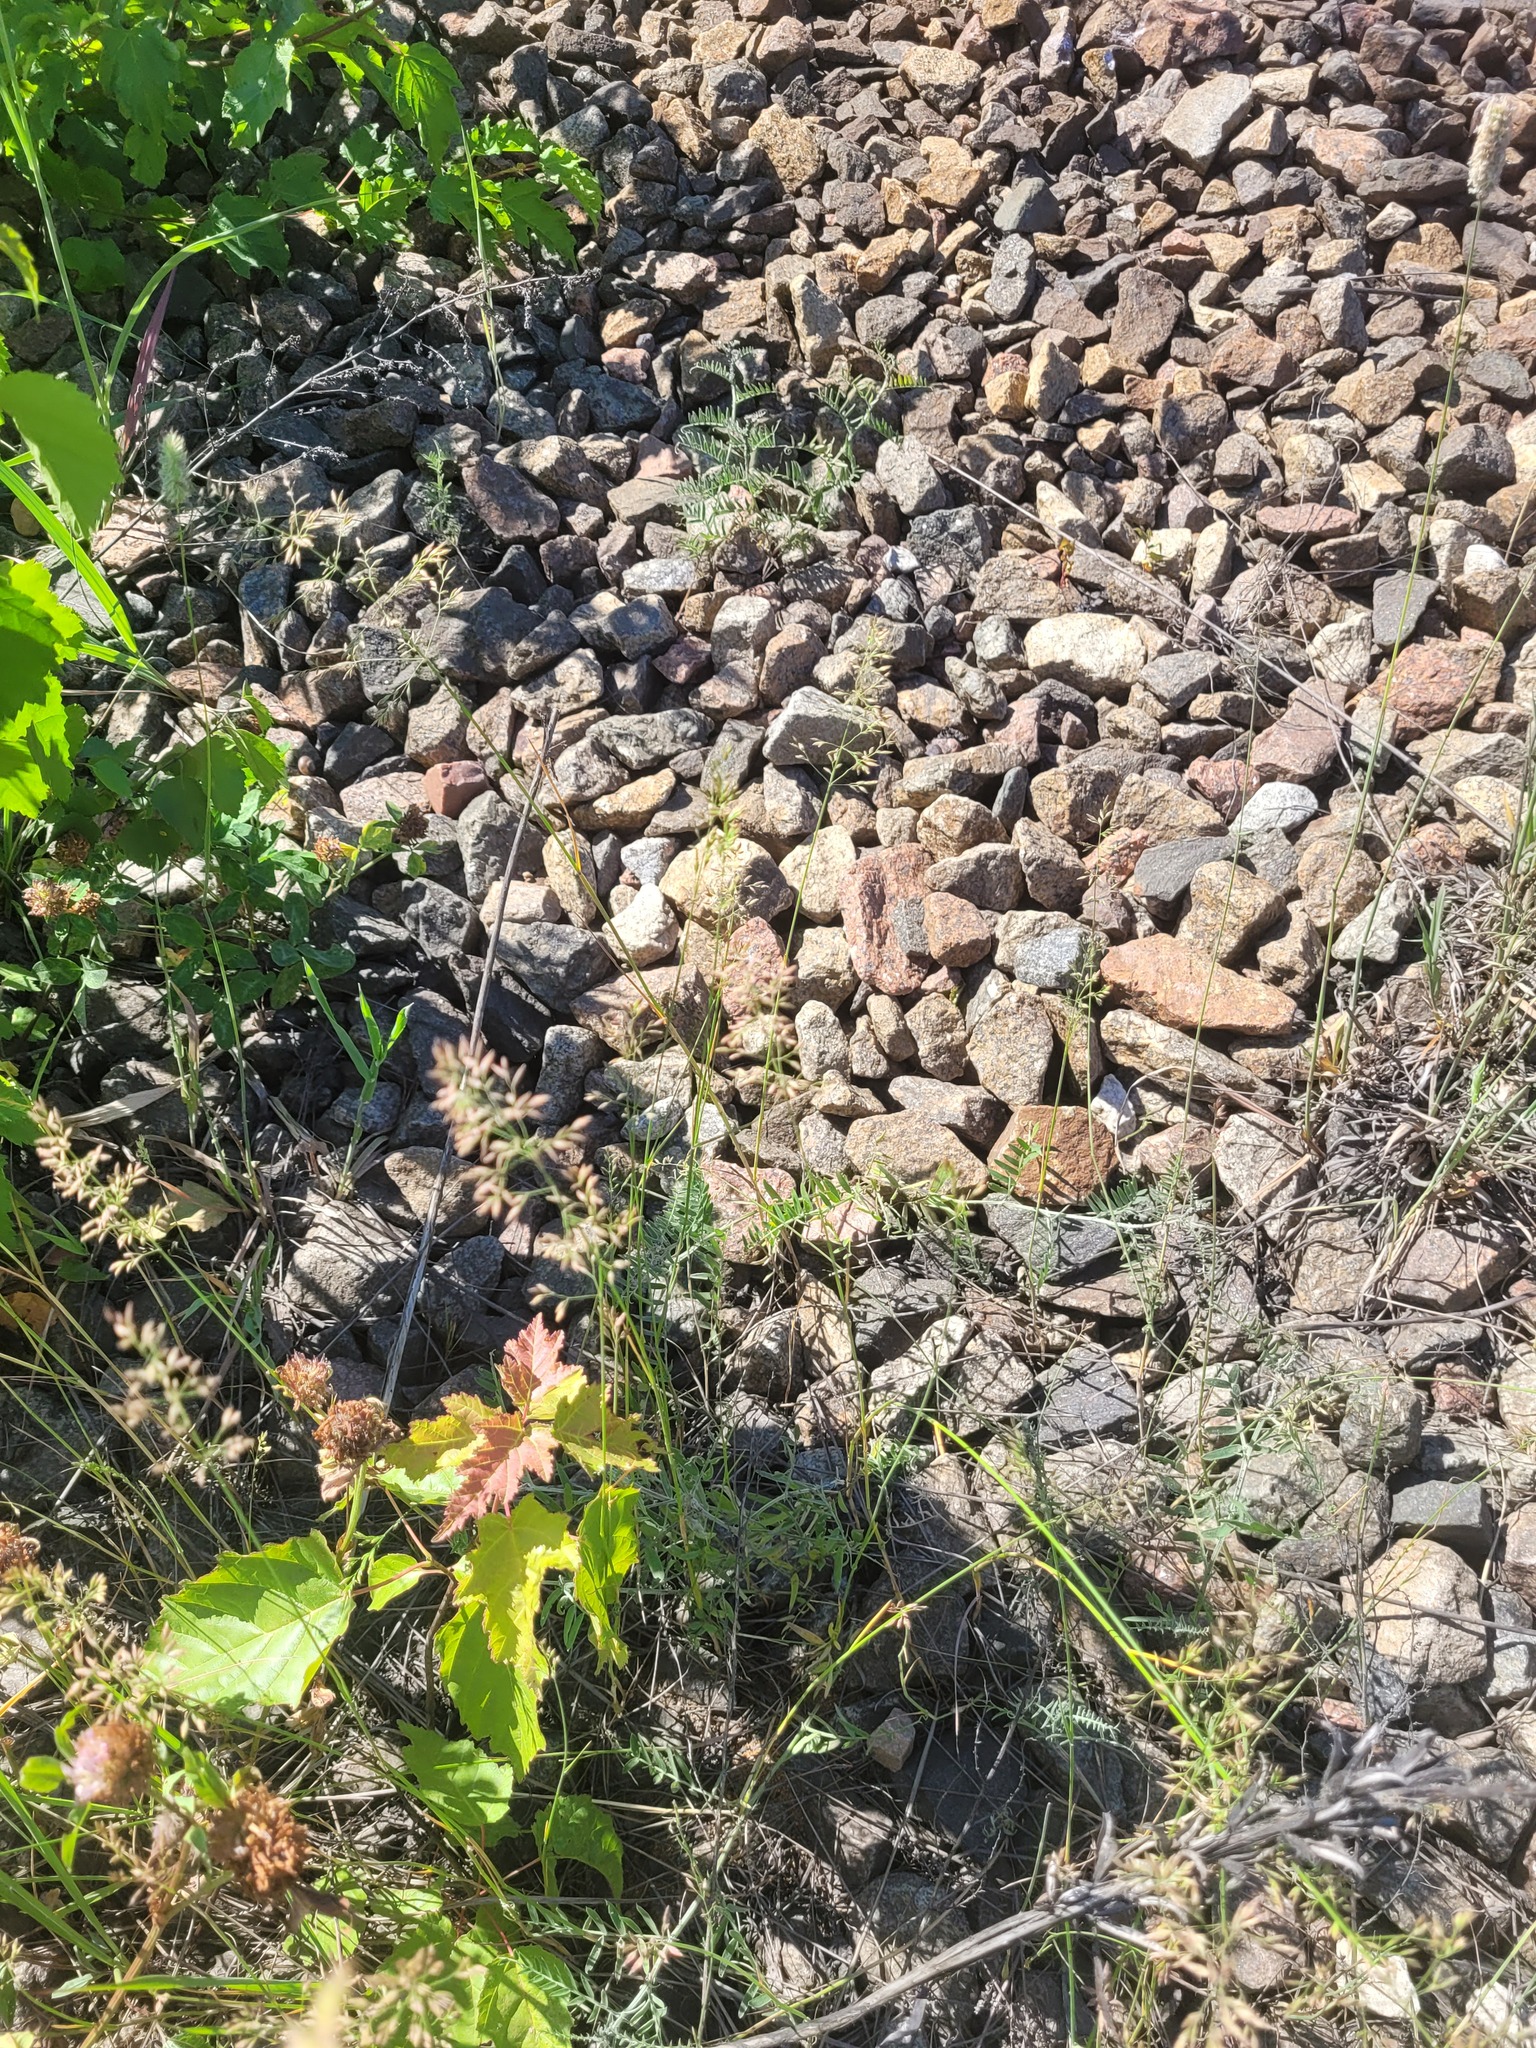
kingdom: Plantae
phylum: Tracheophyta
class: Liliopsida
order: Poales
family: Poaceae
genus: Poa
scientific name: Poa compressa
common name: Canada bluegrass
